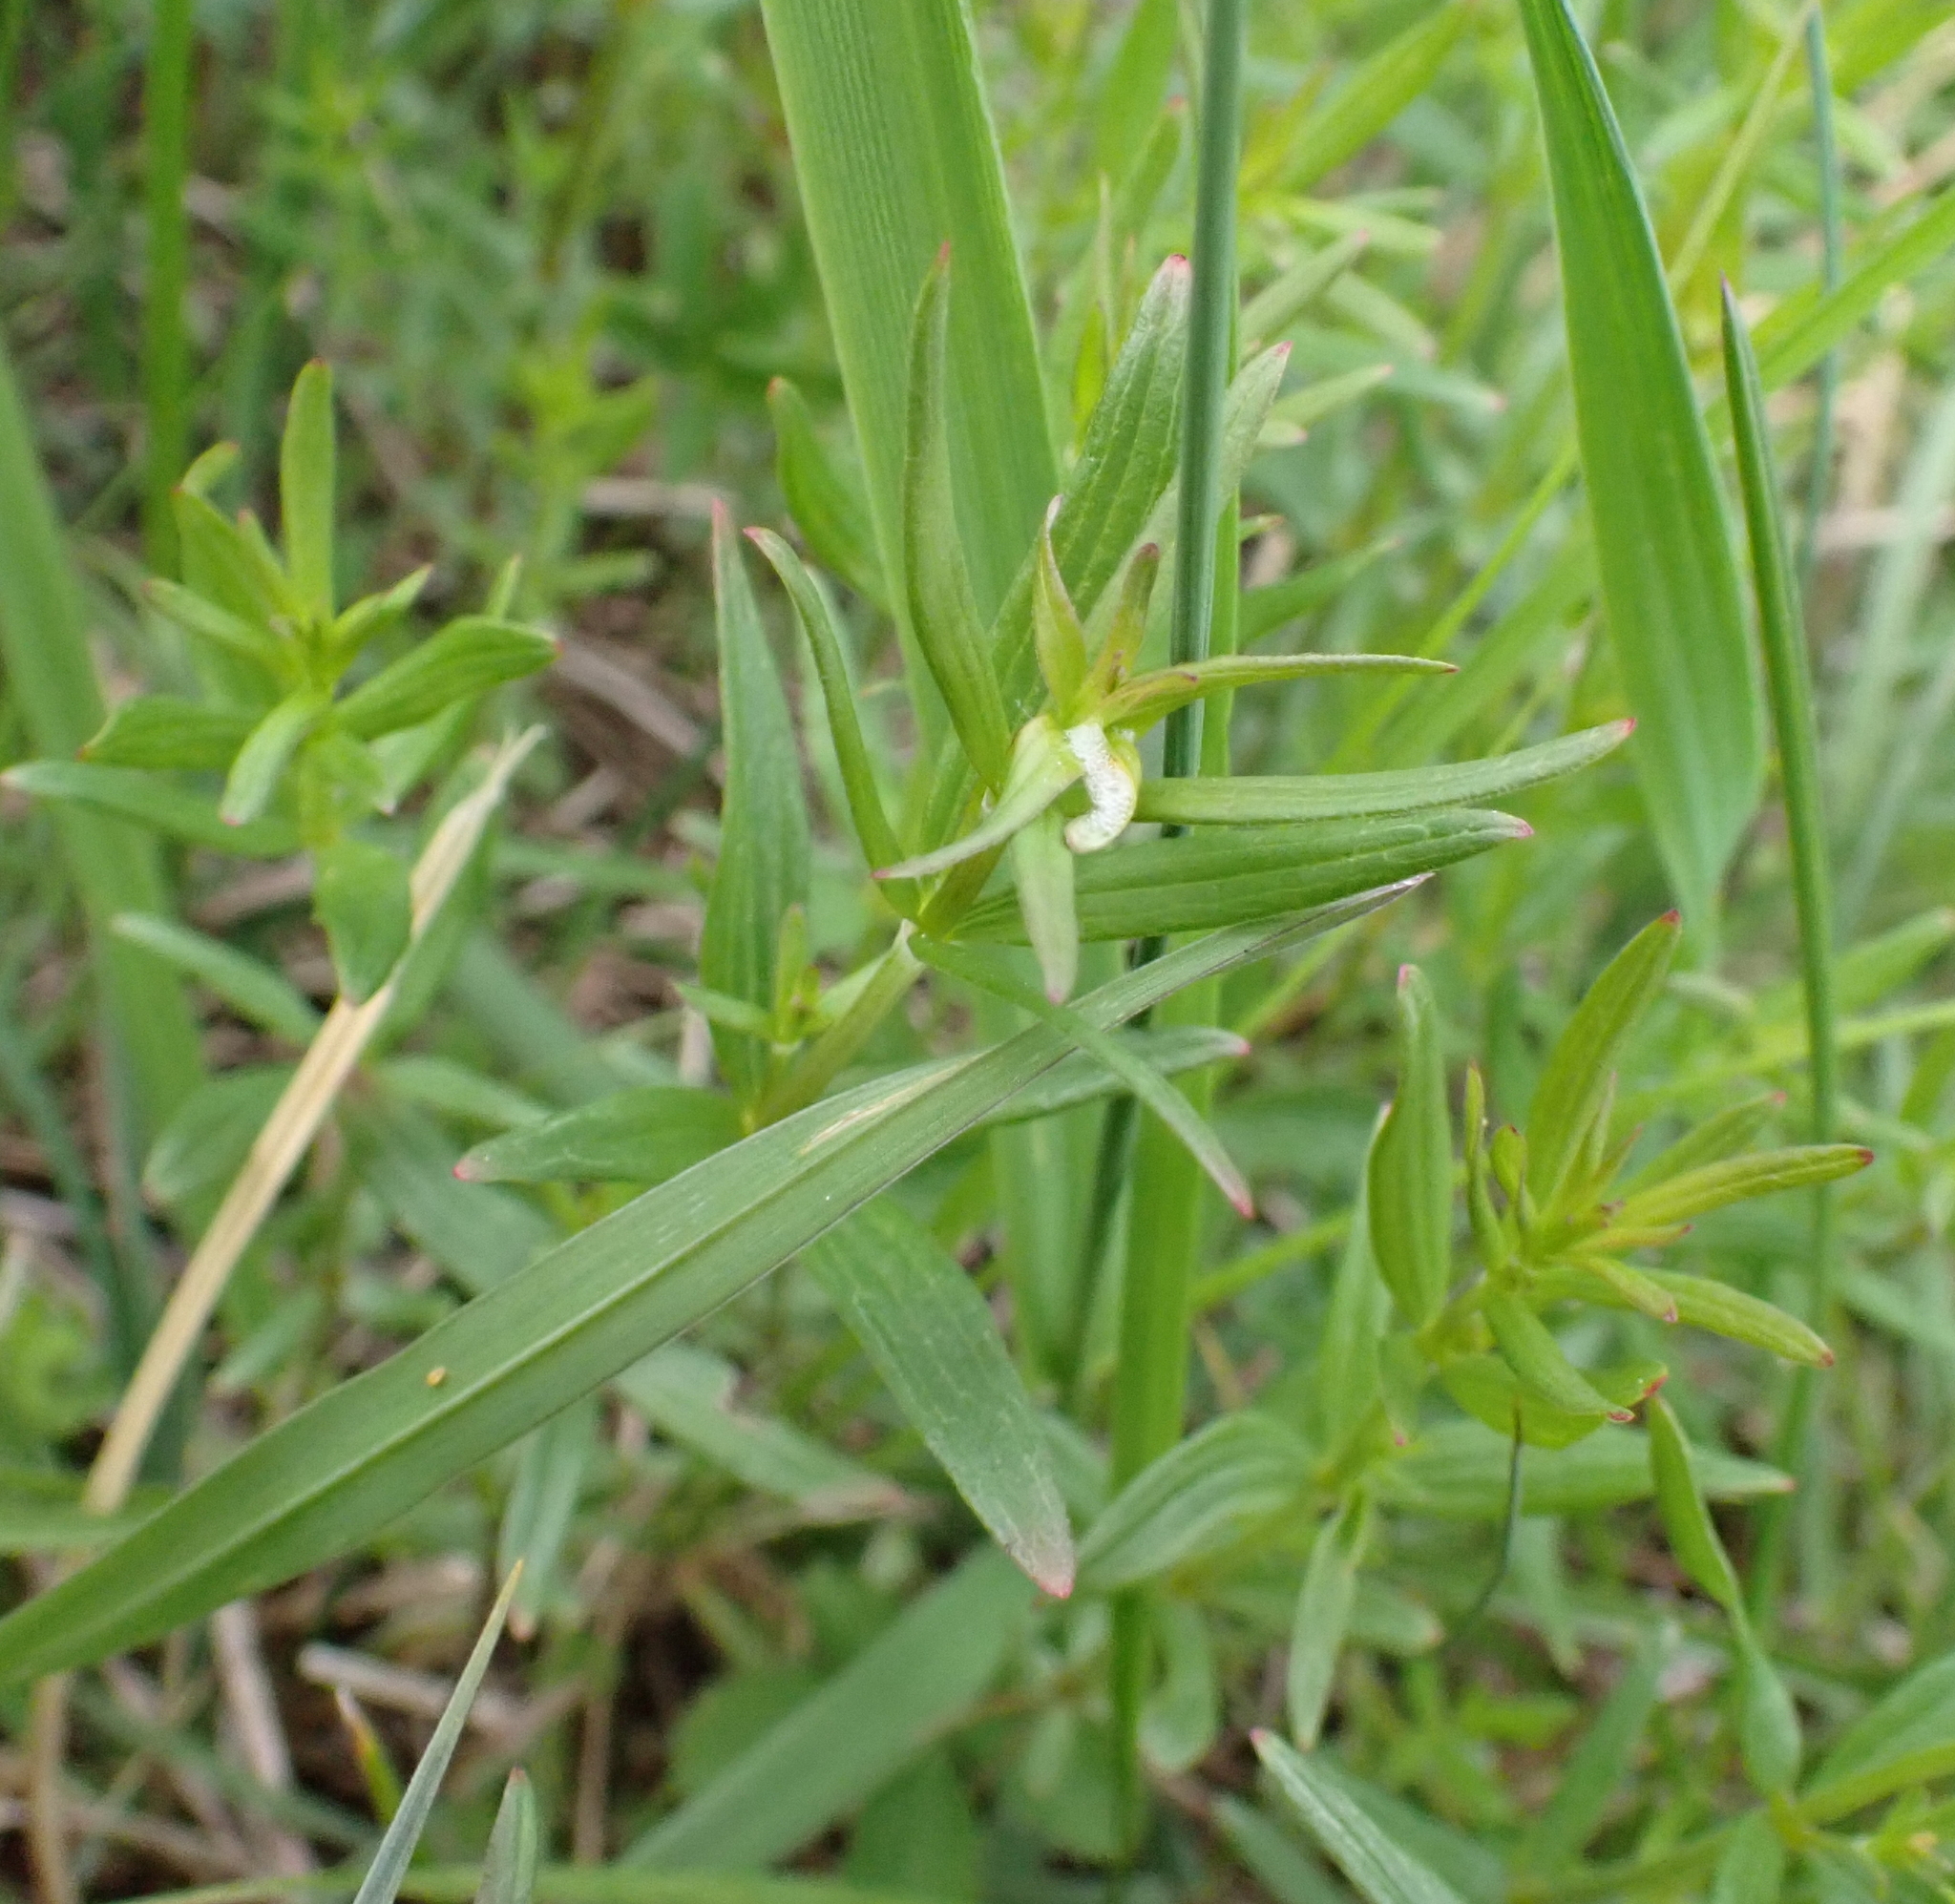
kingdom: Plantae
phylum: Tracheophyta
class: Magnoliopsida
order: Gentianales
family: Rubiaceae
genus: Galium
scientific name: Galium boreale
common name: Northern bedstraw
